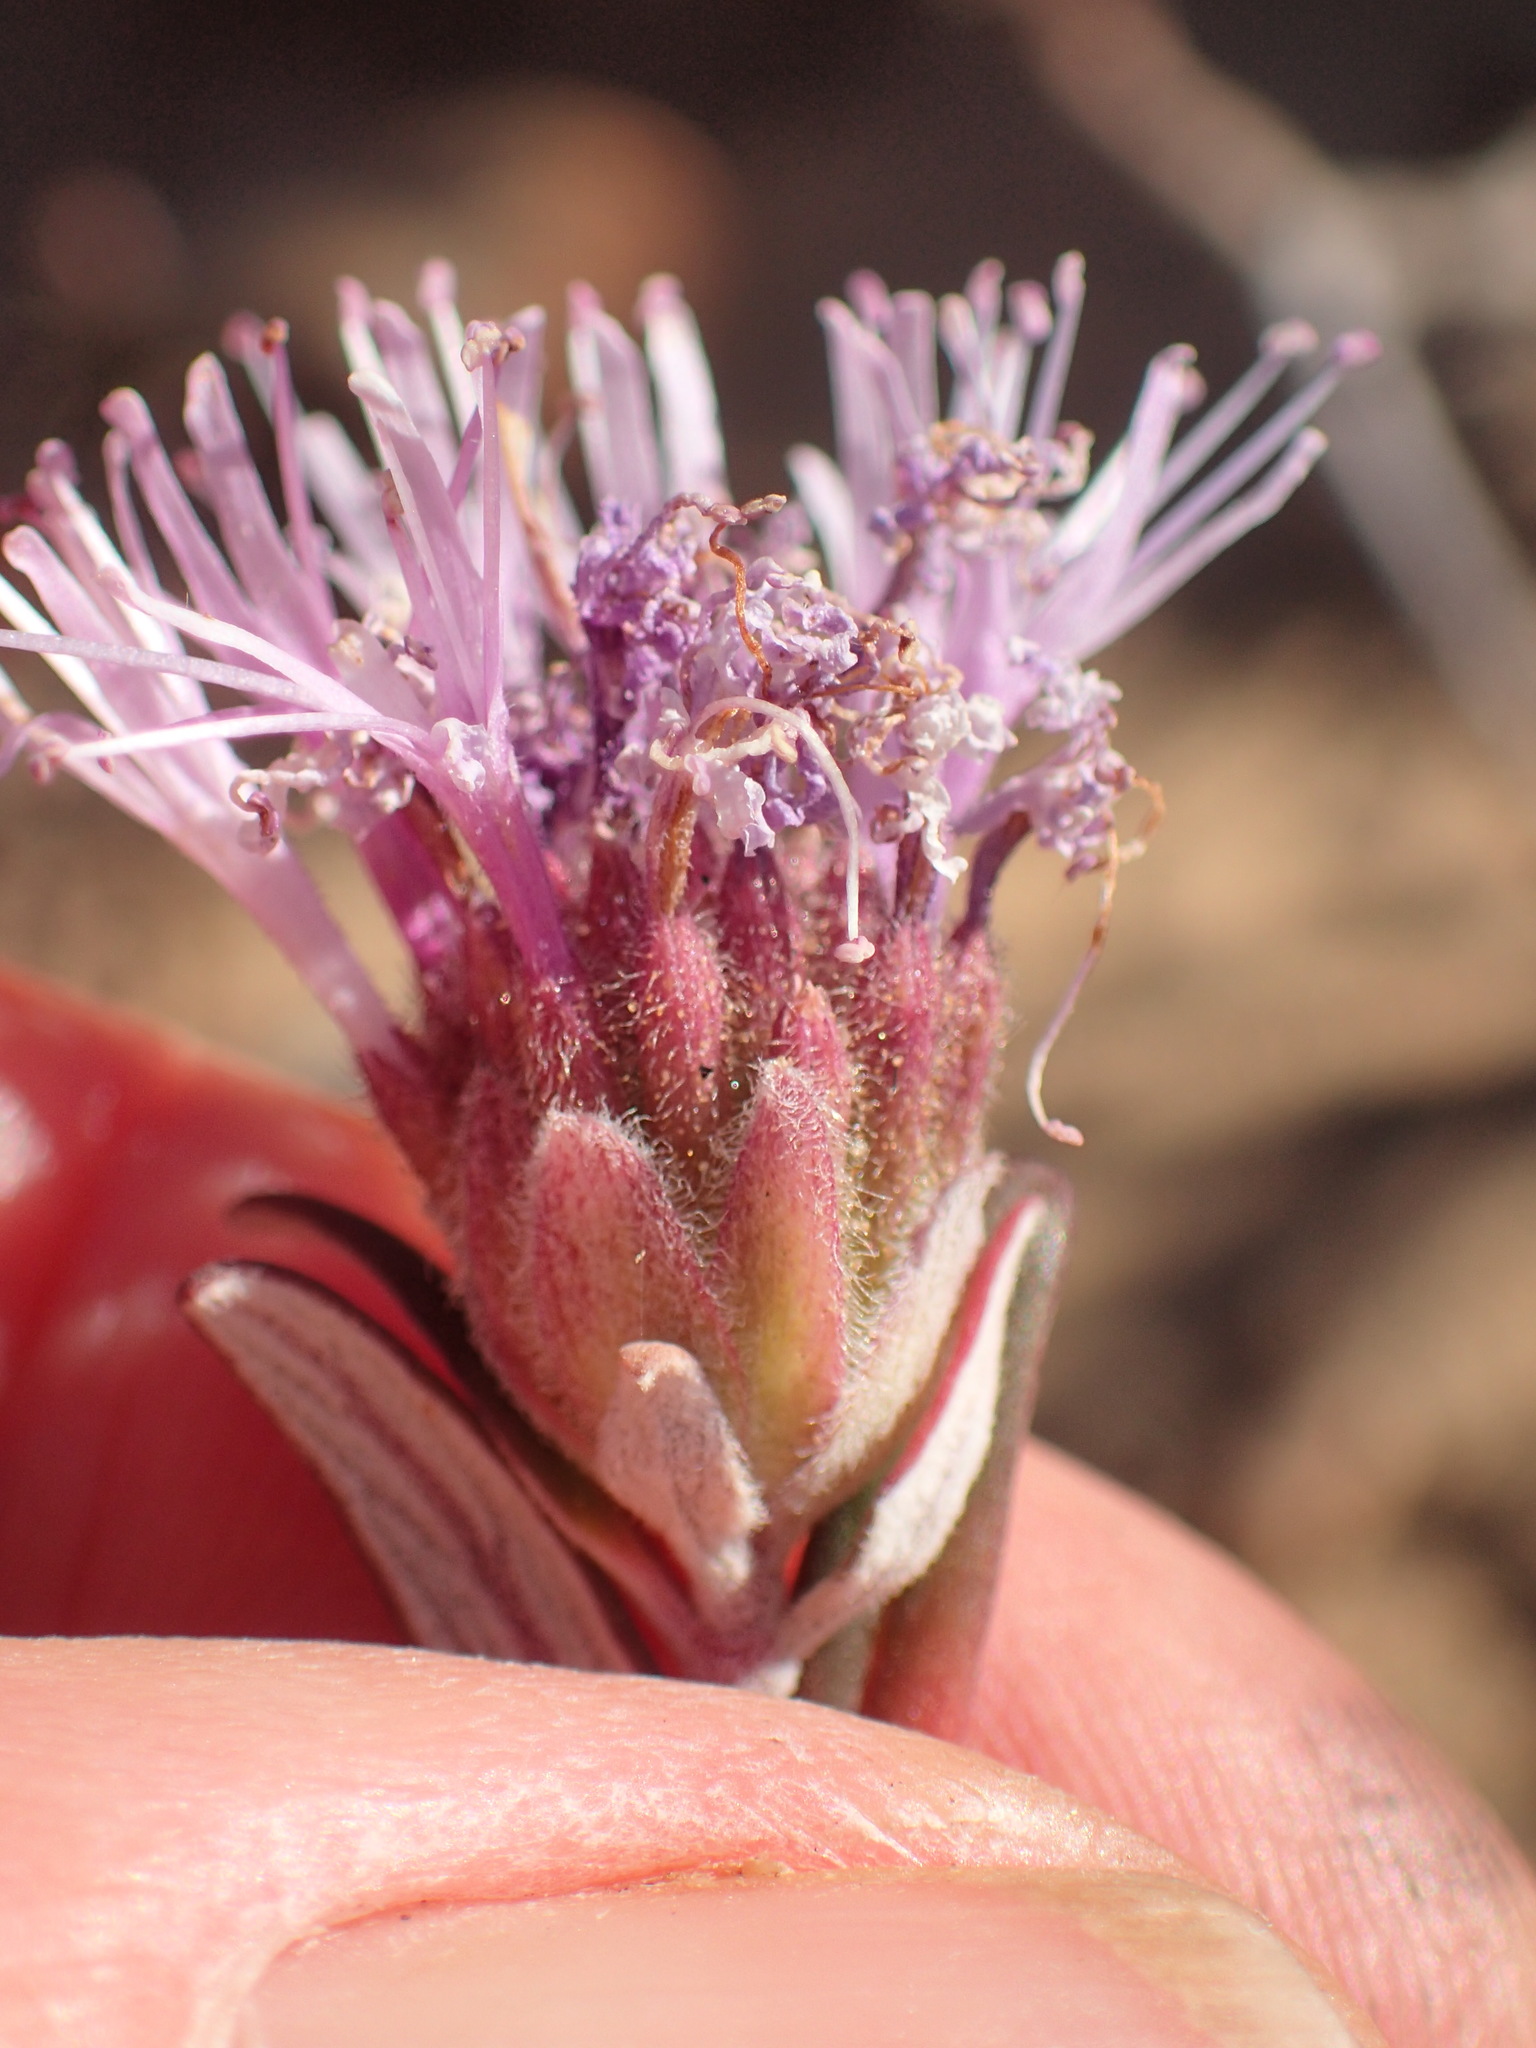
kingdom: Plantae
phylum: Tracheophyta
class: Magnoliopsida
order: Lamiales
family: Lamiaceae
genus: Monardella
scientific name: Monardella hypoleuca
